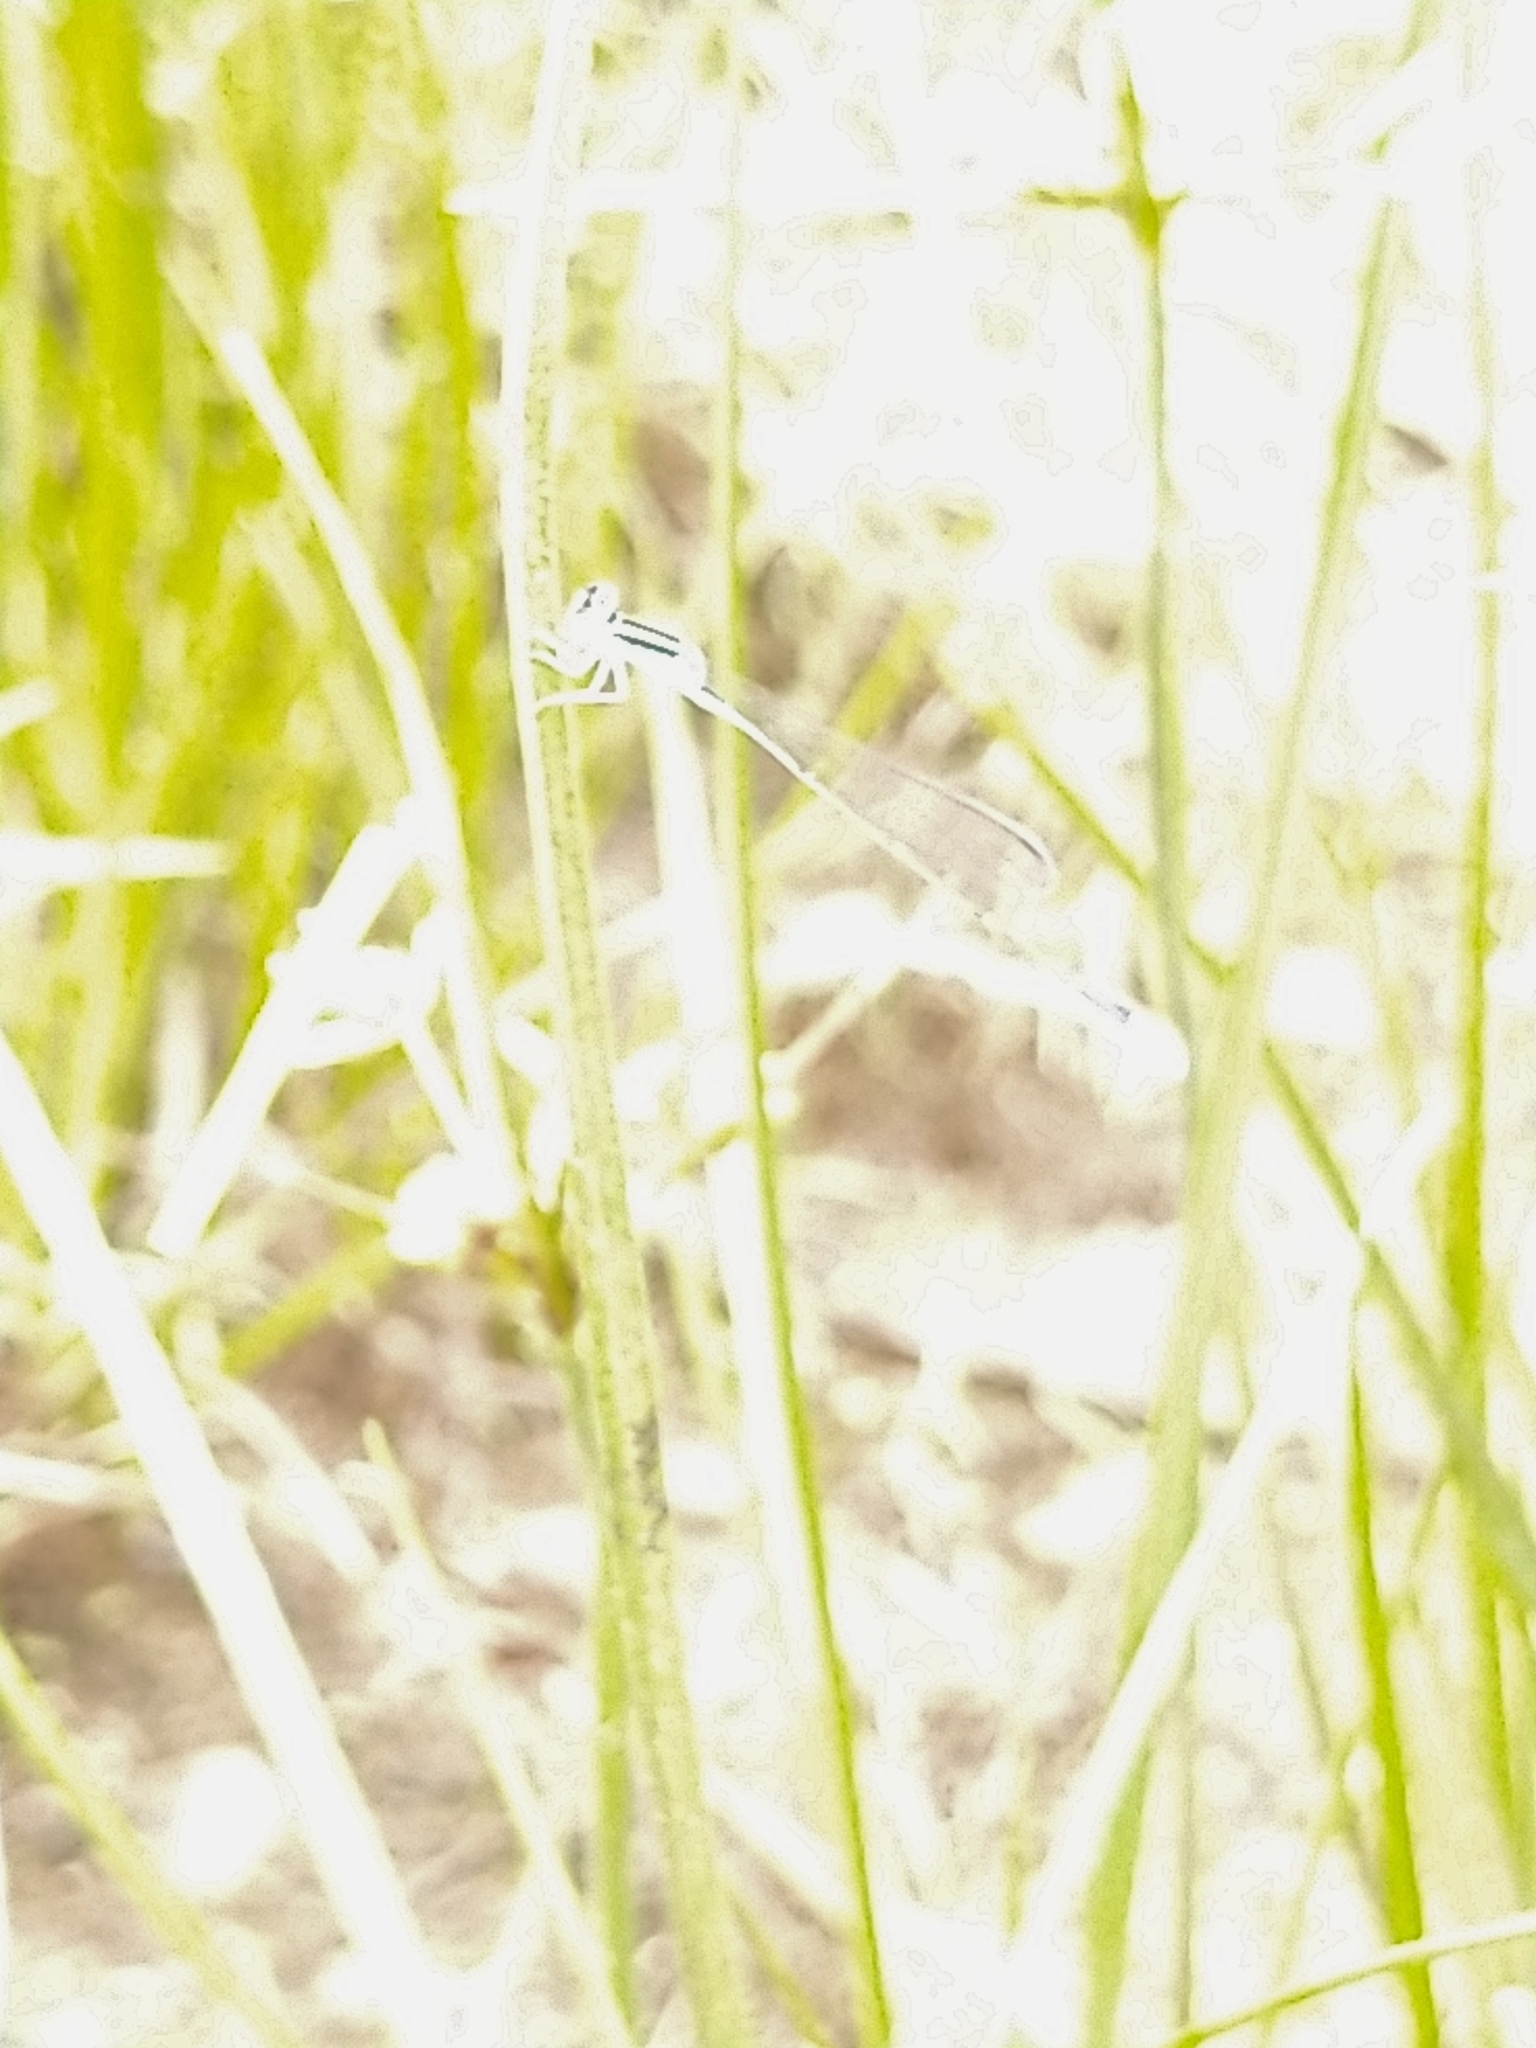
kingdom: Animalia
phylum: Arthropoda
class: Insecta
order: Odonata
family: Coenagrionidae
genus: Aciagrion
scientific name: Aciagrion occidentale
